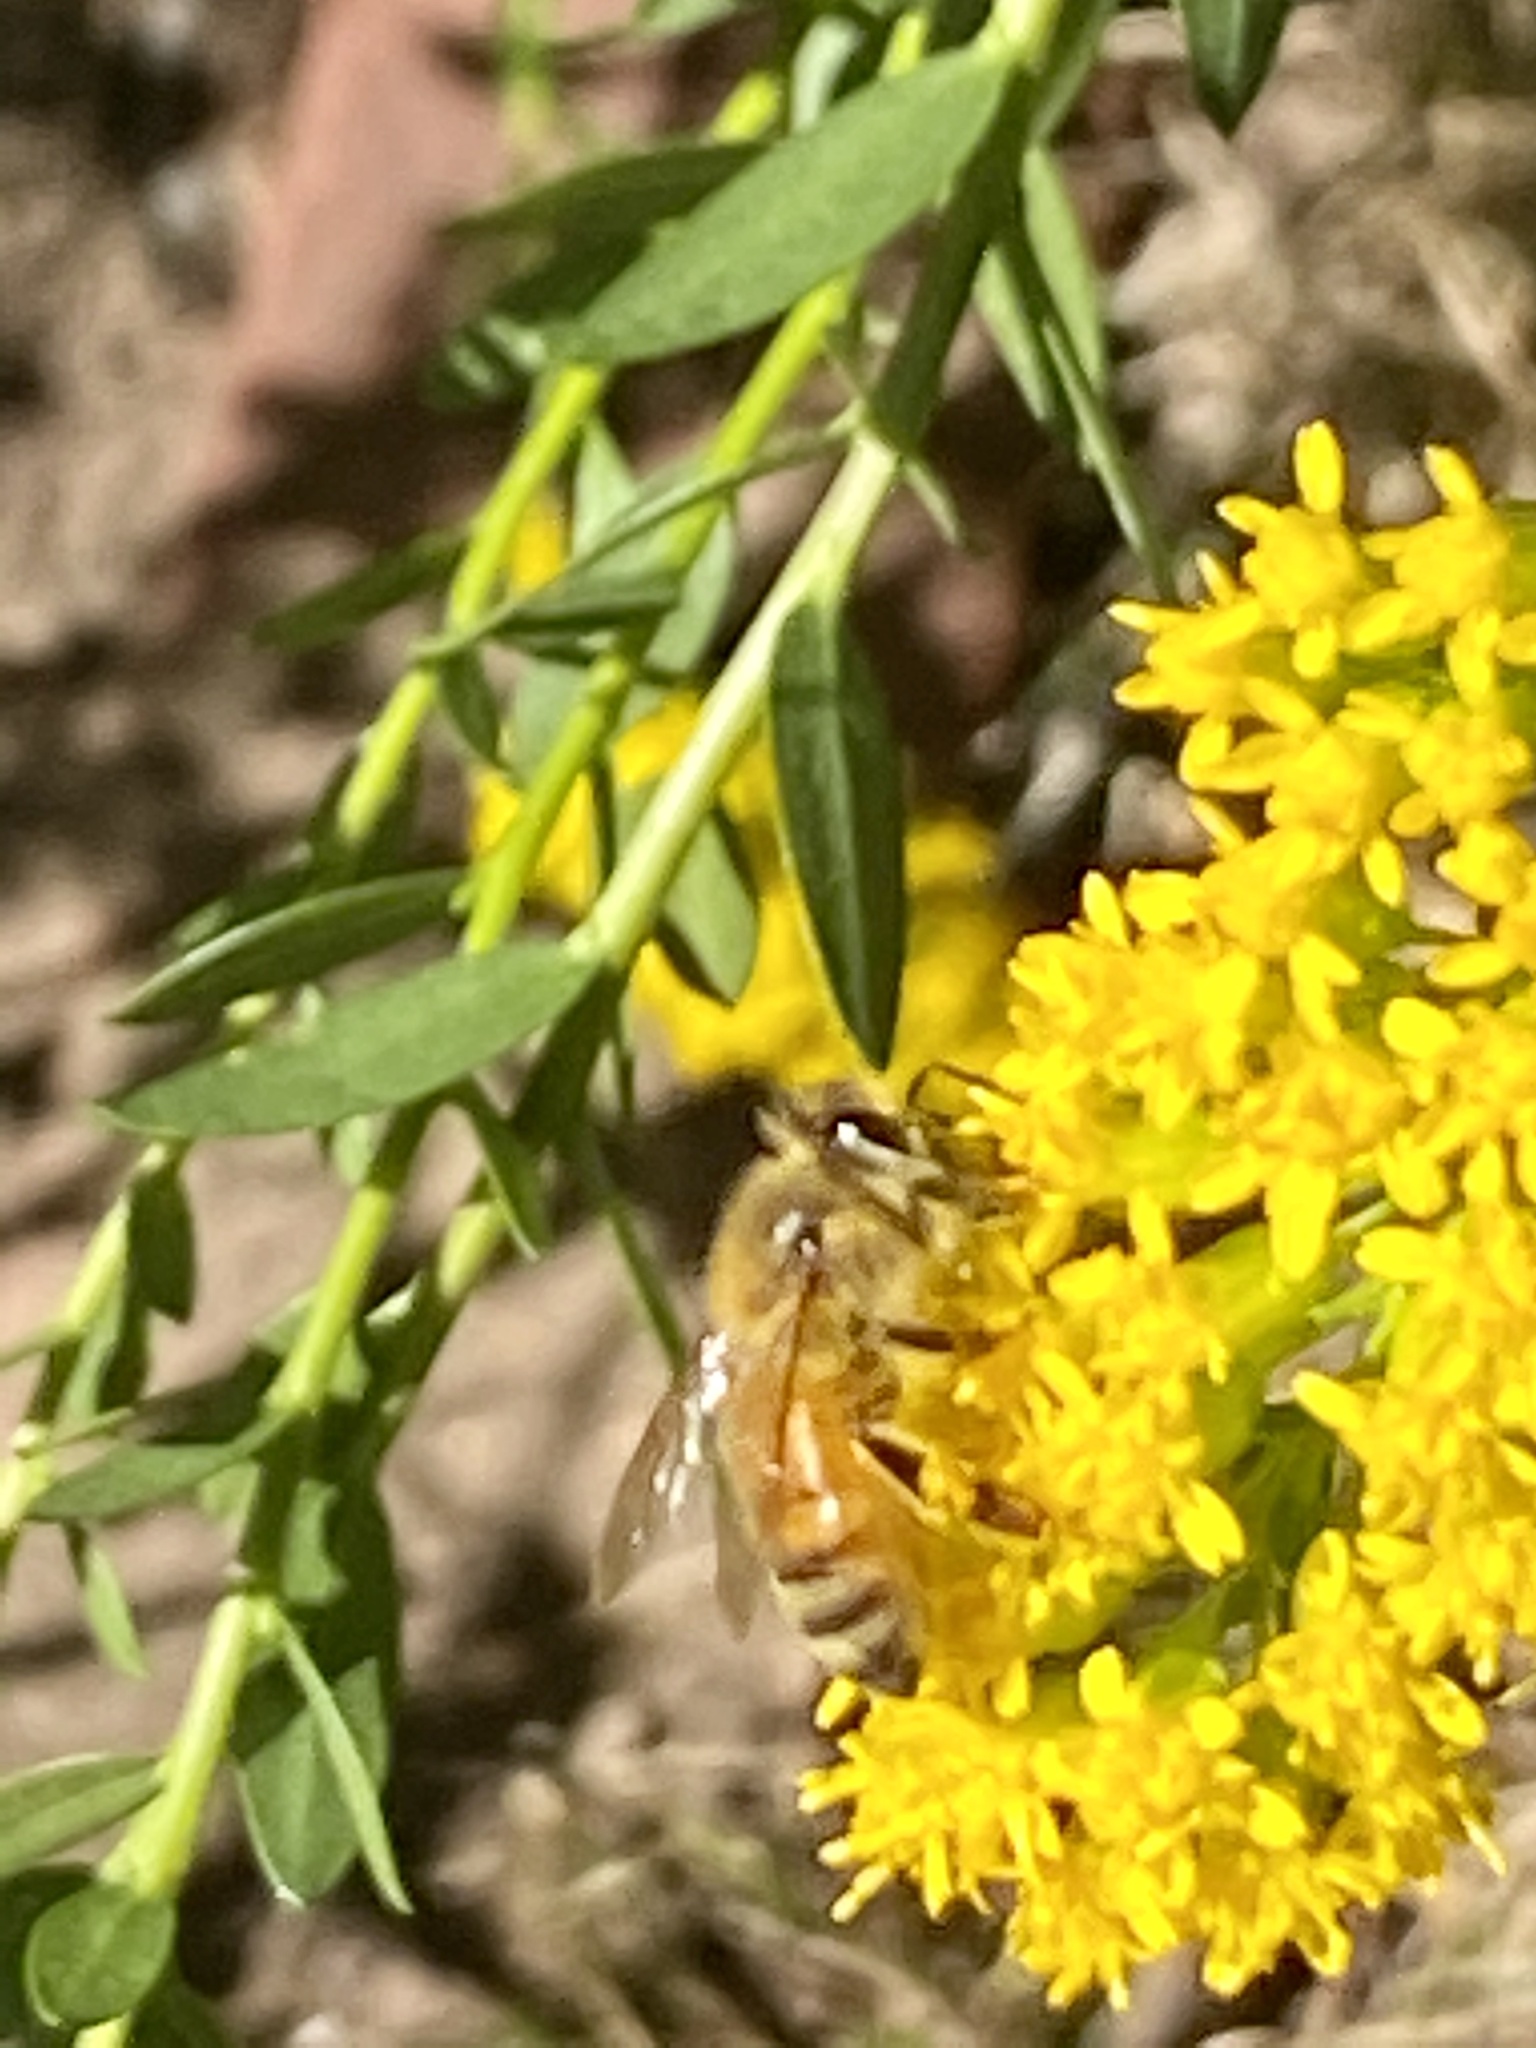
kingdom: Animalia
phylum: Arthropoda
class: Insecta
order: Hymenoptera
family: Apidae
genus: Apis
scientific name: Apis mellifera
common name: Honey bee
